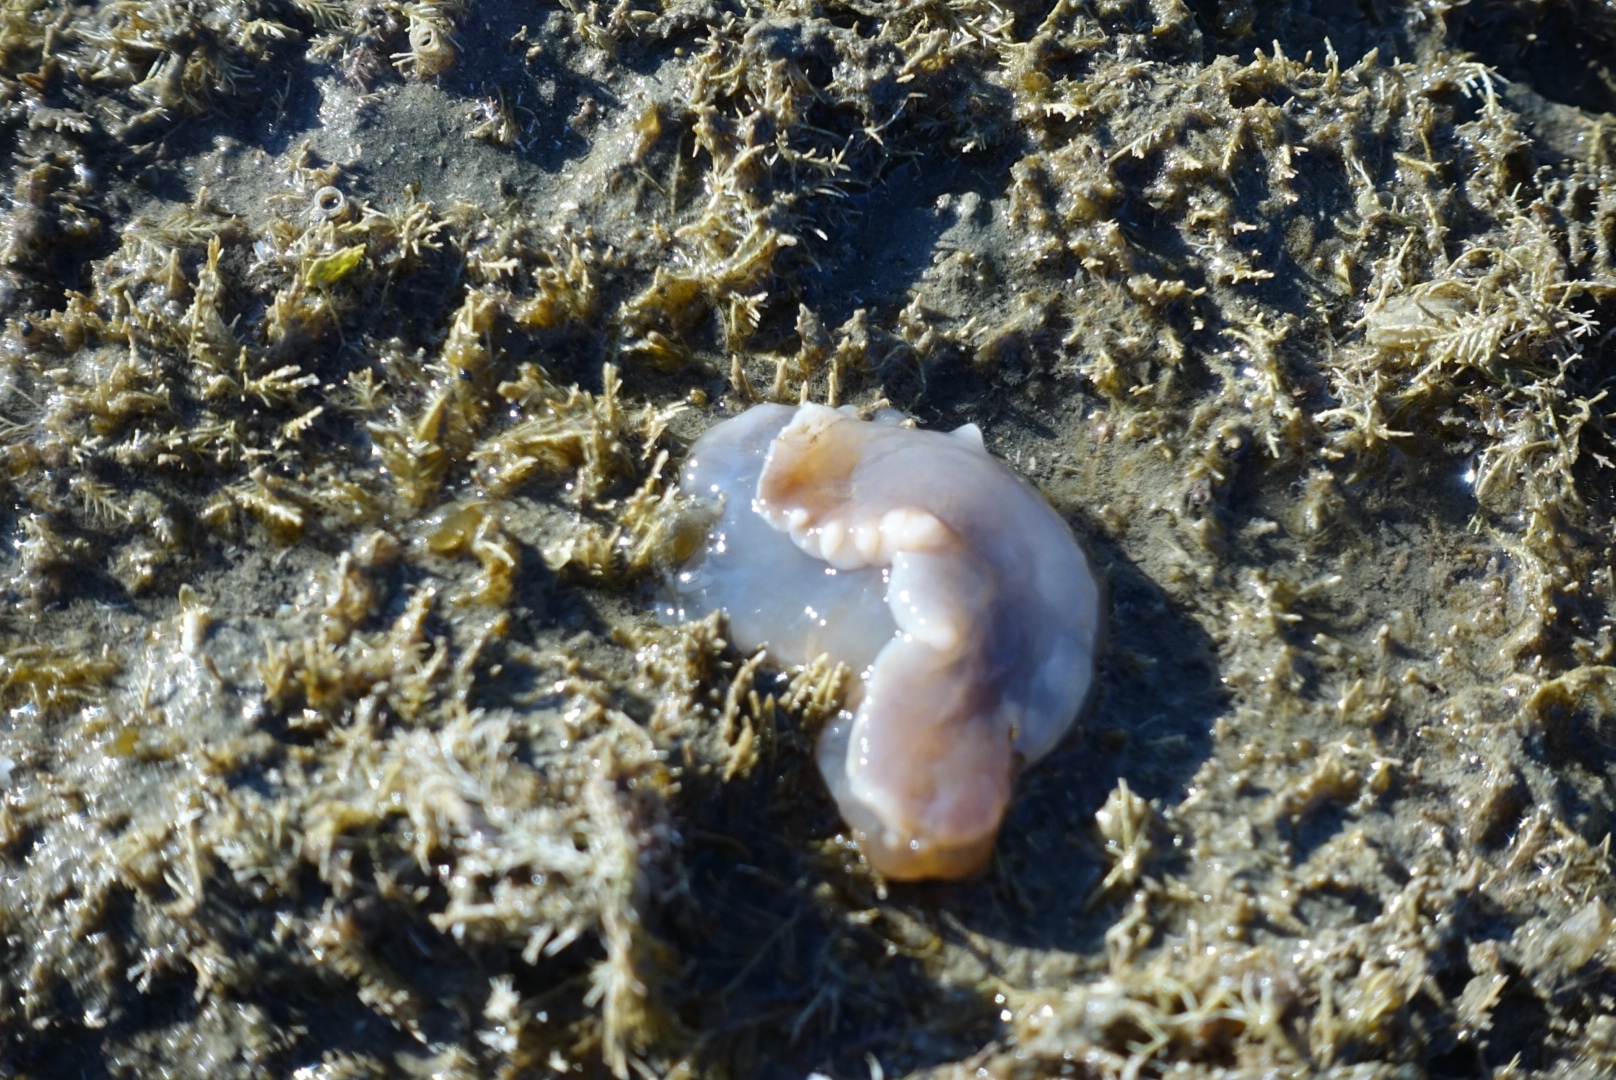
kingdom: Animalia
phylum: Mollusca
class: Gastropoda
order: Nudibranchia
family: Dendrodorididae
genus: Dendrodoris
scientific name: Dendrodoris krusensternii
